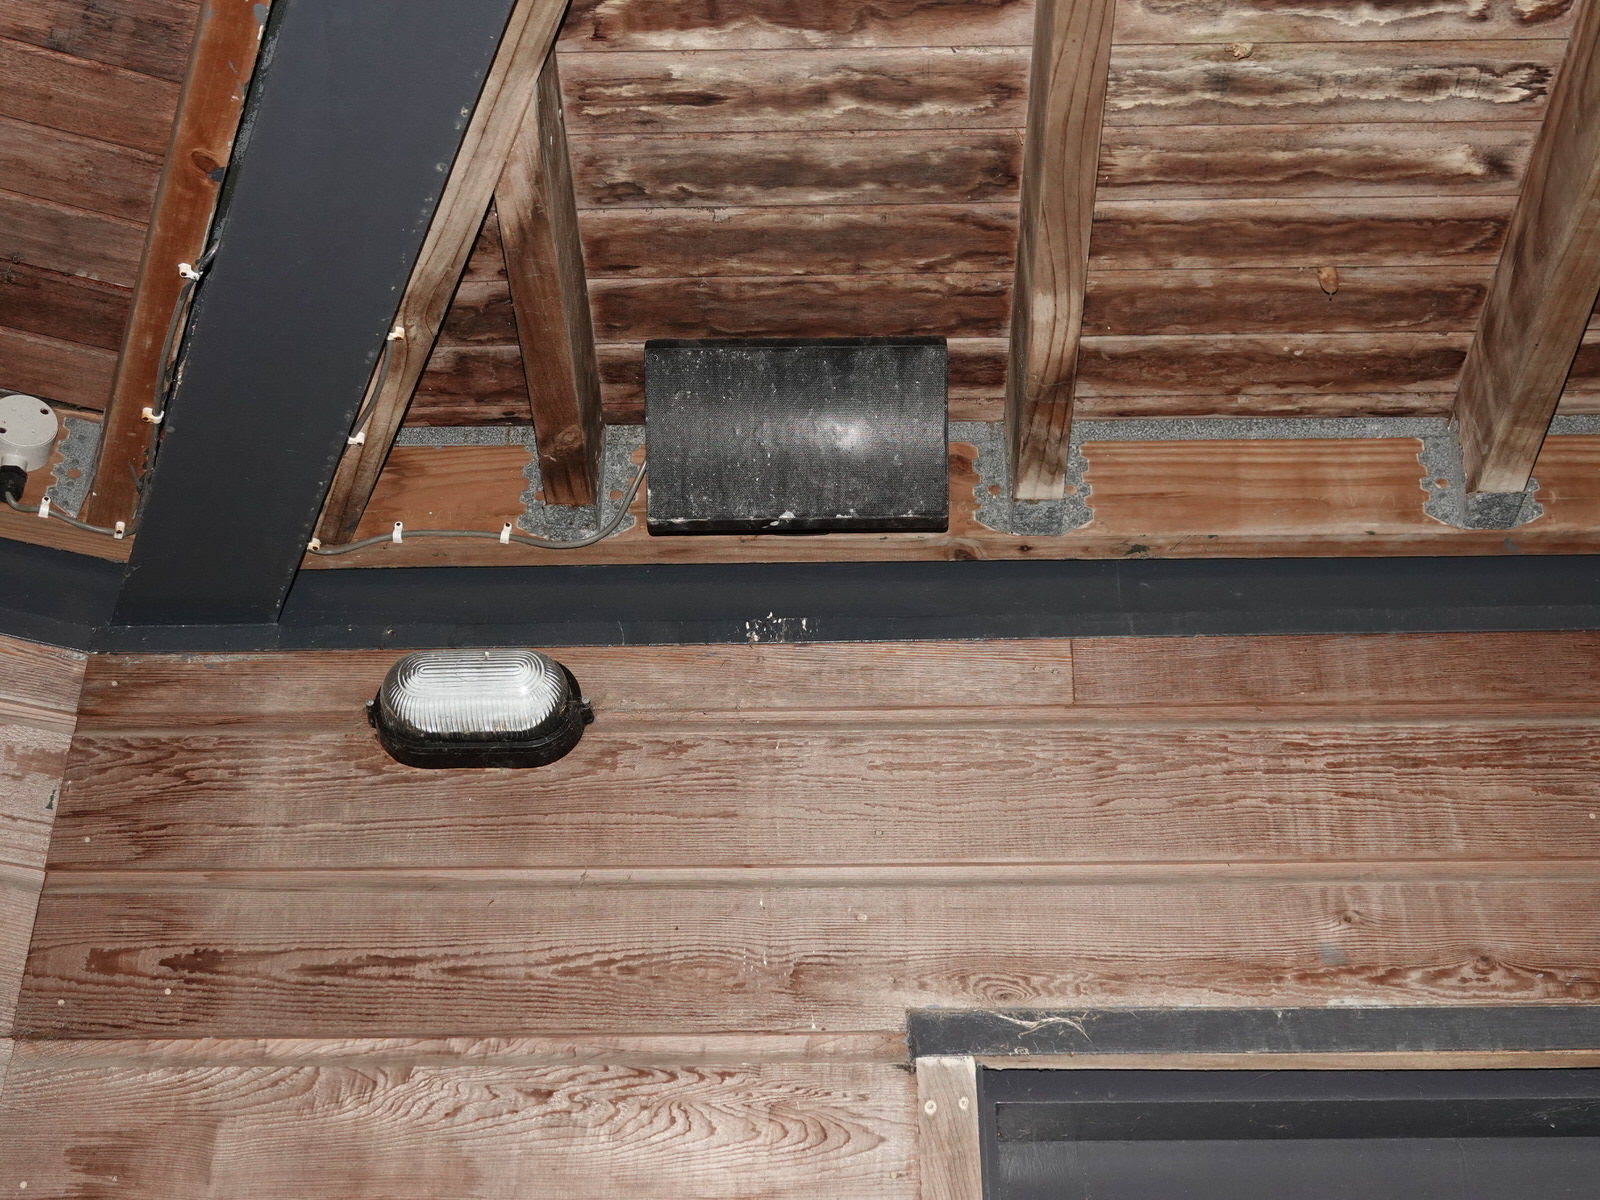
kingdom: Animalia
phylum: Chordata
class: Aves
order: Passeriformes
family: Passeridae
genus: Passer
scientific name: Passer domesticus
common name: House sparrow
